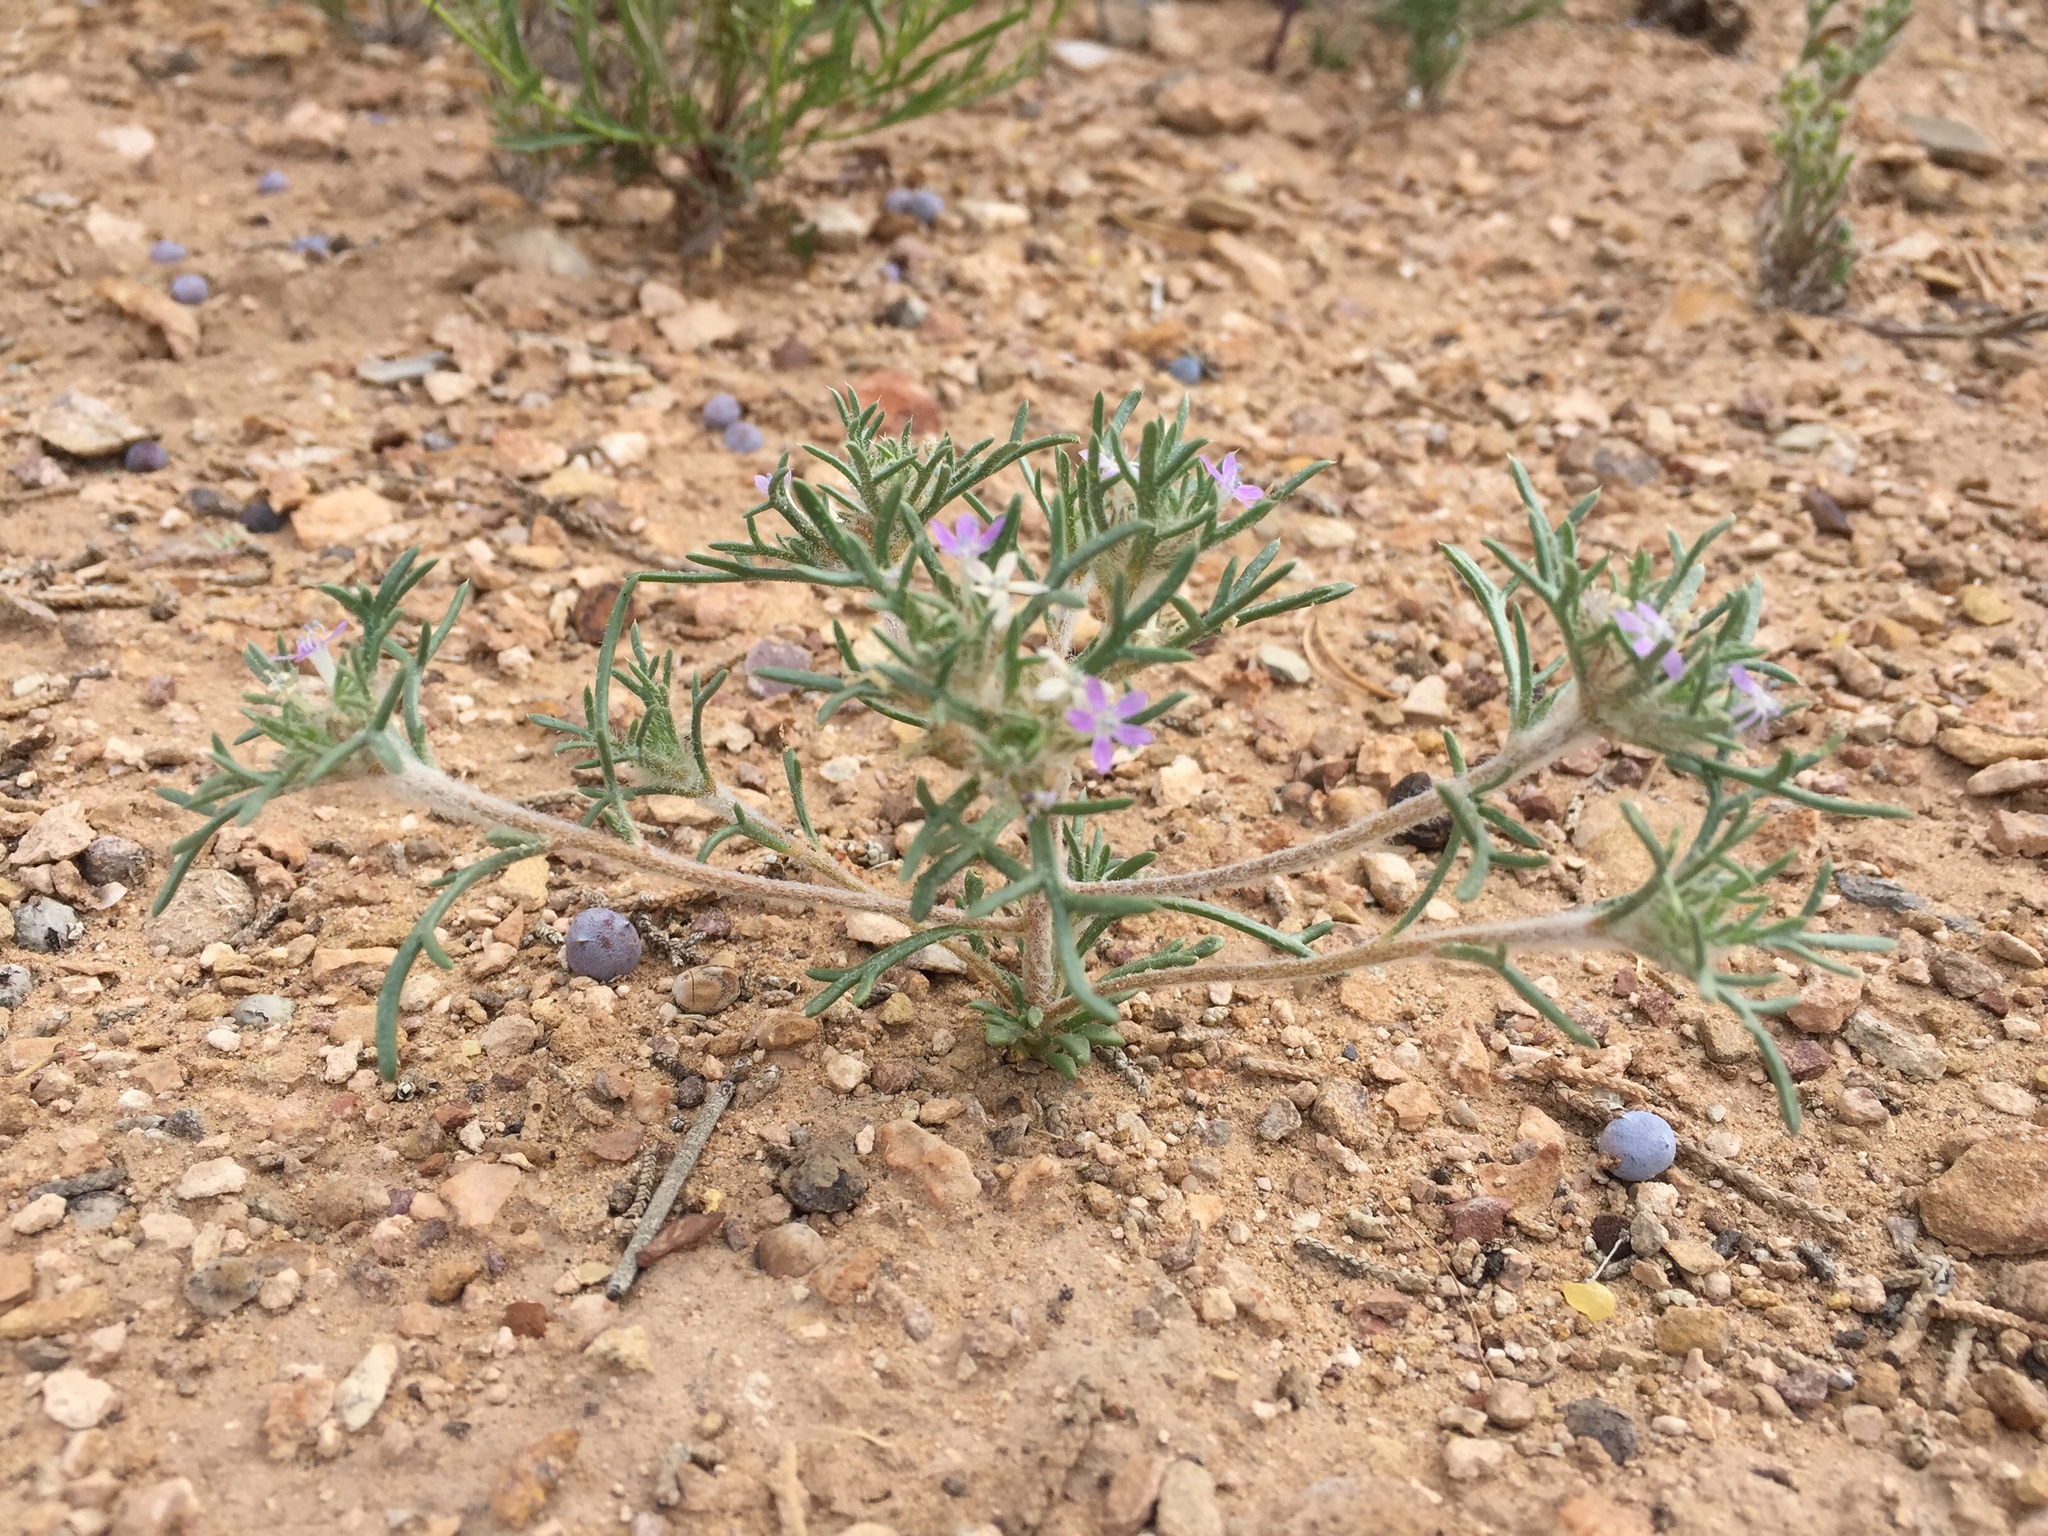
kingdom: Plantae
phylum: Tracheophyta
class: Magnoliopsida
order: Ericales
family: Polemoniaceae
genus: Ipomopsis
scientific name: Ipomopsis pumila
